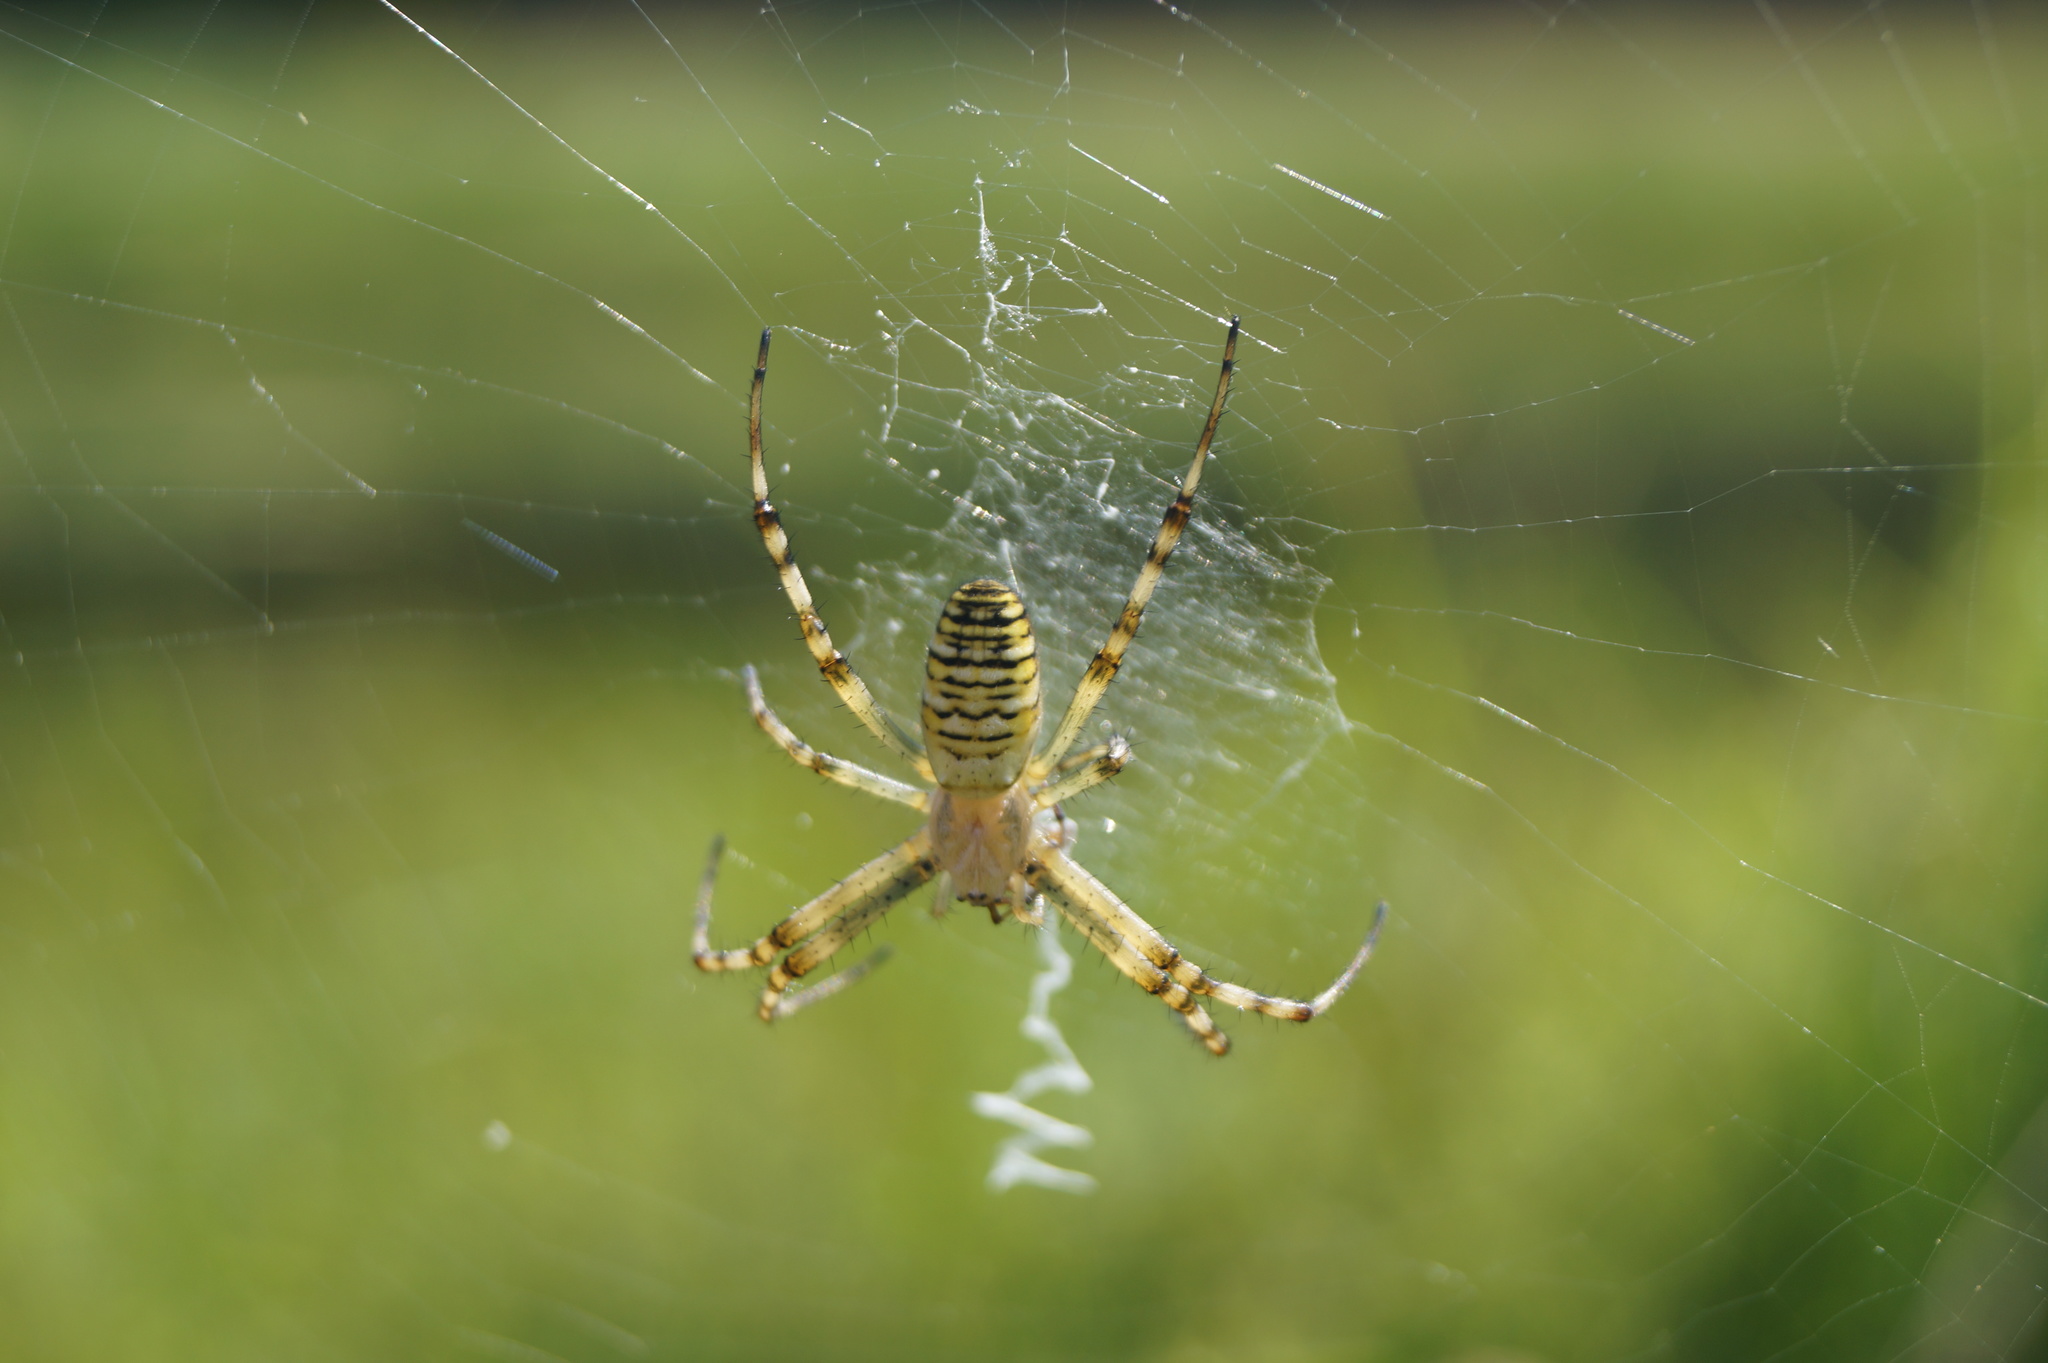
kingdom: Animalia
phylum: Arthropoda
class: Arachnida
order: Araneae
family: Araneidae
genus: Argiope
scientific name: Argiope bruennichi
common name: Wasp spider
